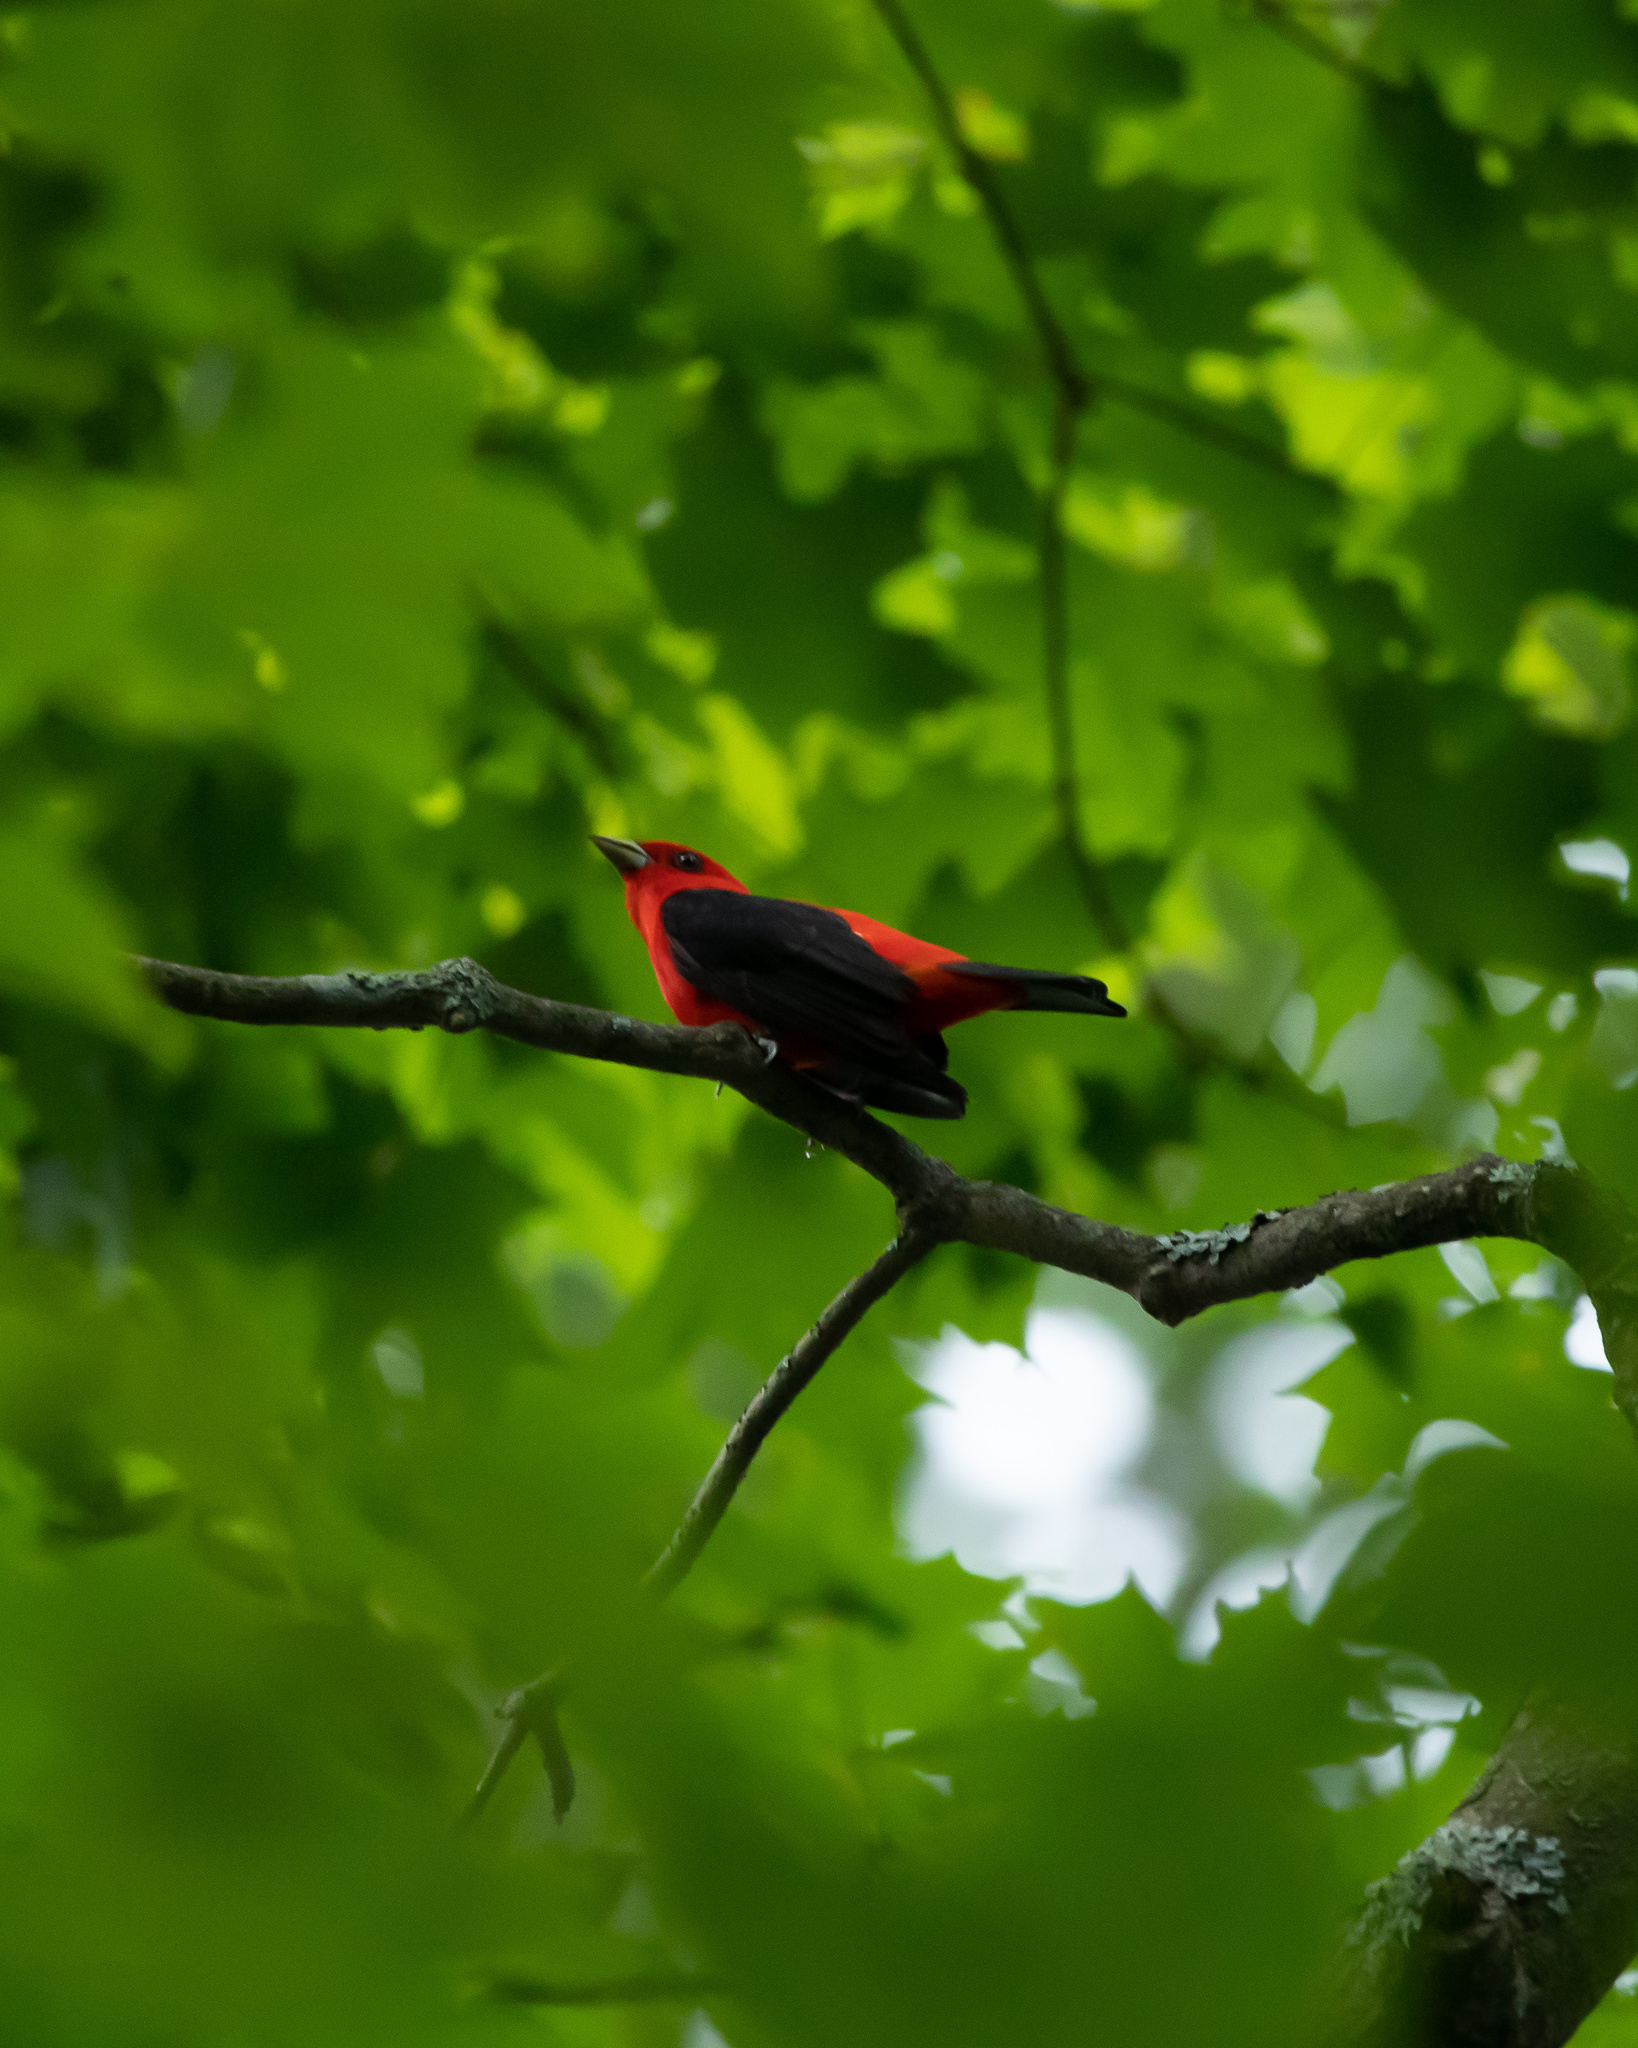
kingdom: Animalia
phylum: Chordata
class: Aves
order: Passeriformes
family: Cardinalidae
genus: Piranga
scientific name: Piranga olivacea
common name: Scarlet tanager
